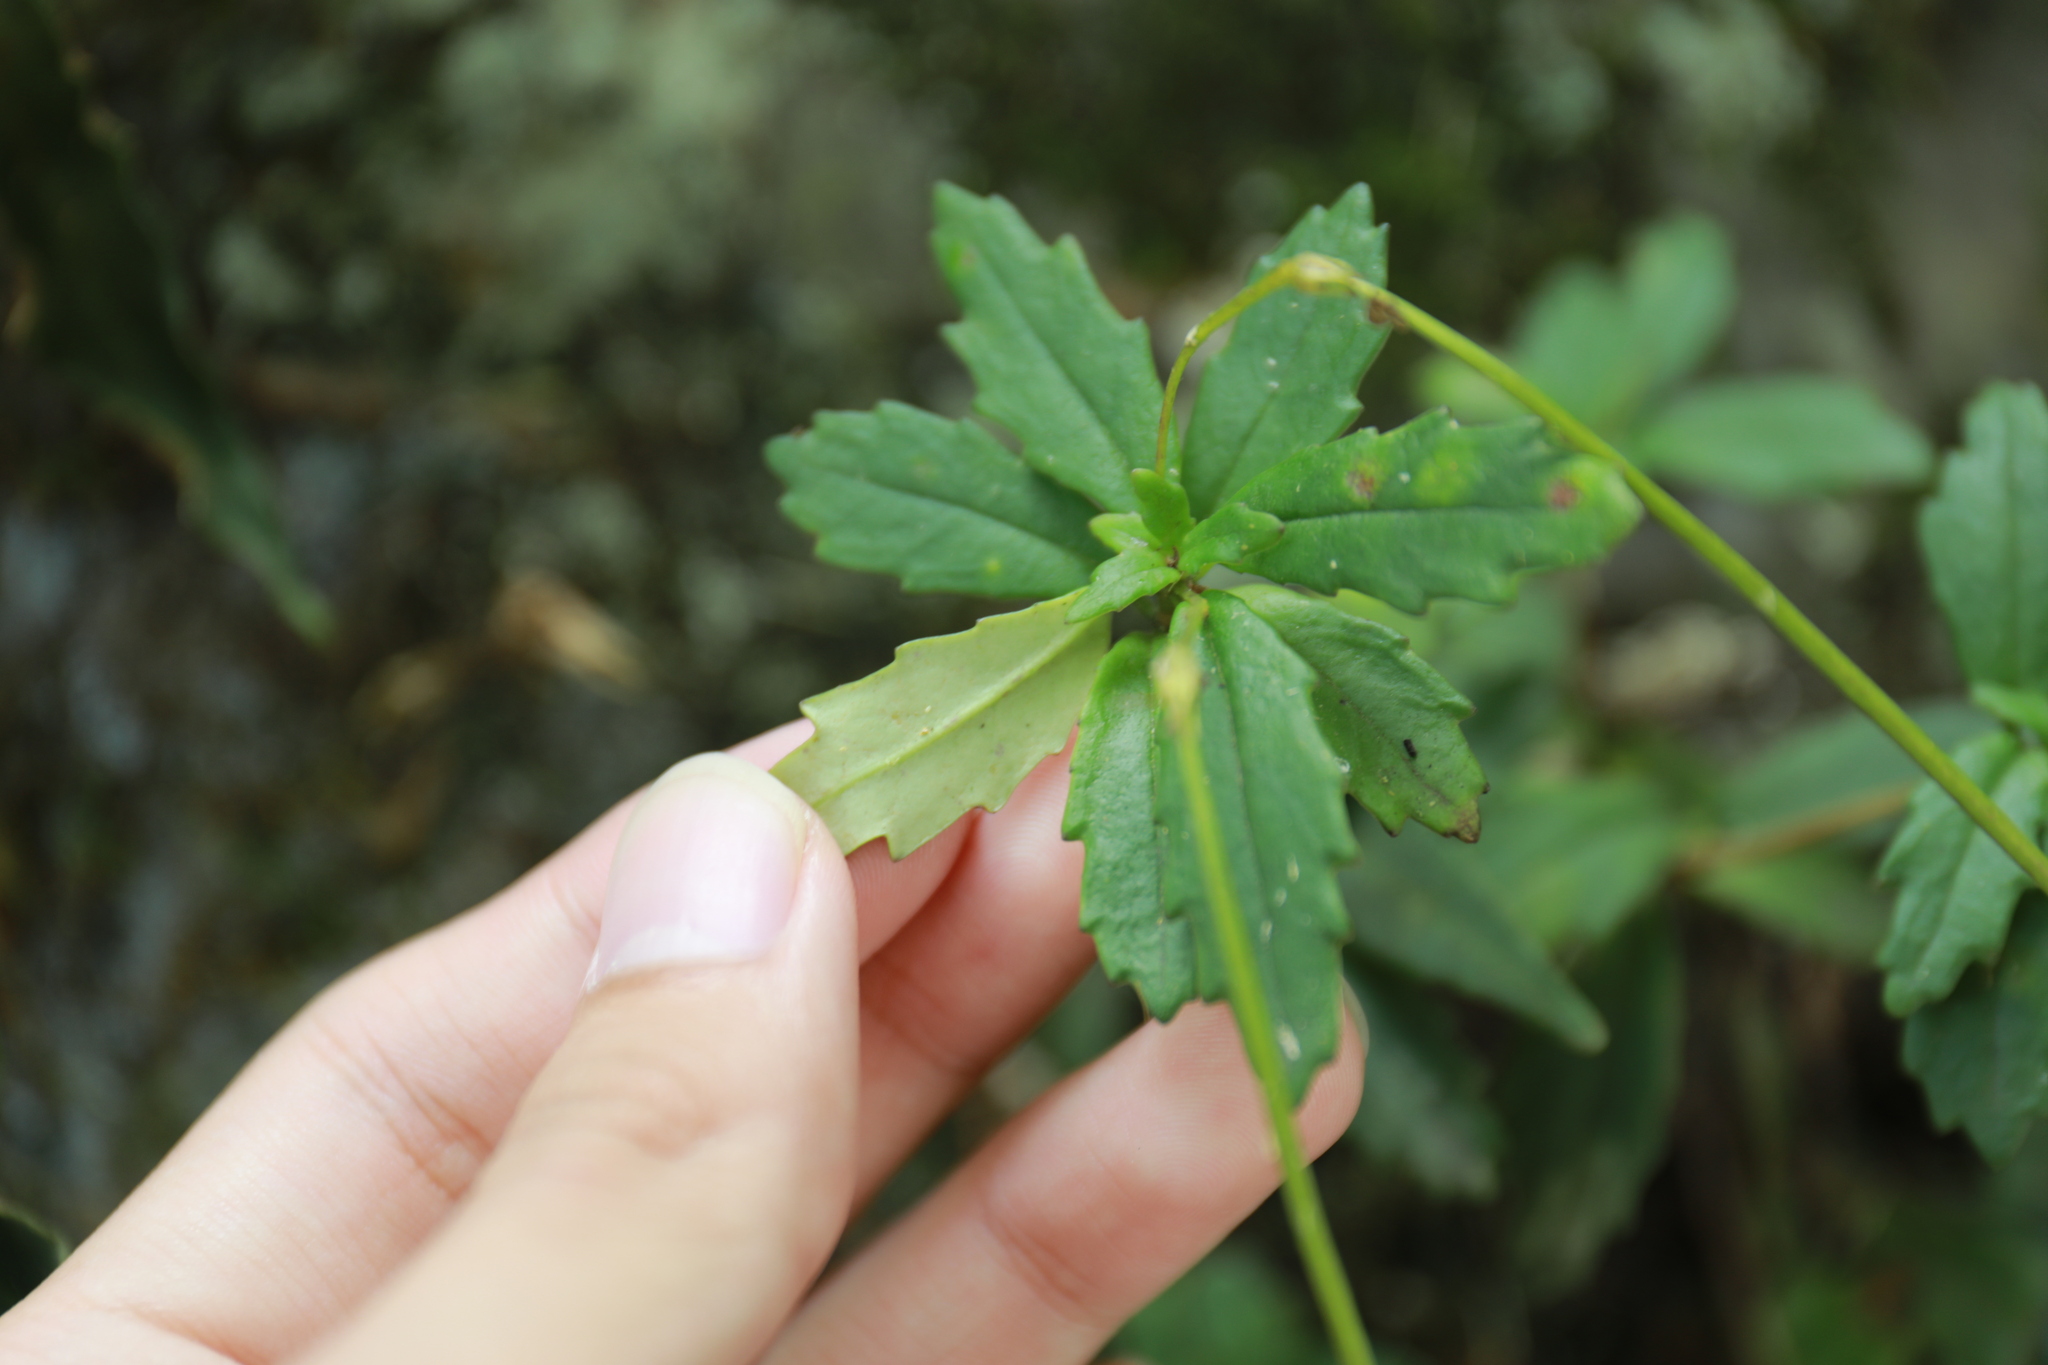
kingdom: Plantae
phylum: Tracheophyta
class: Magnoliopsida
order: Lamiales
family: Gesneriaceae
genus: Lysionotus
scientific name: Lysionotus pauciflorus
